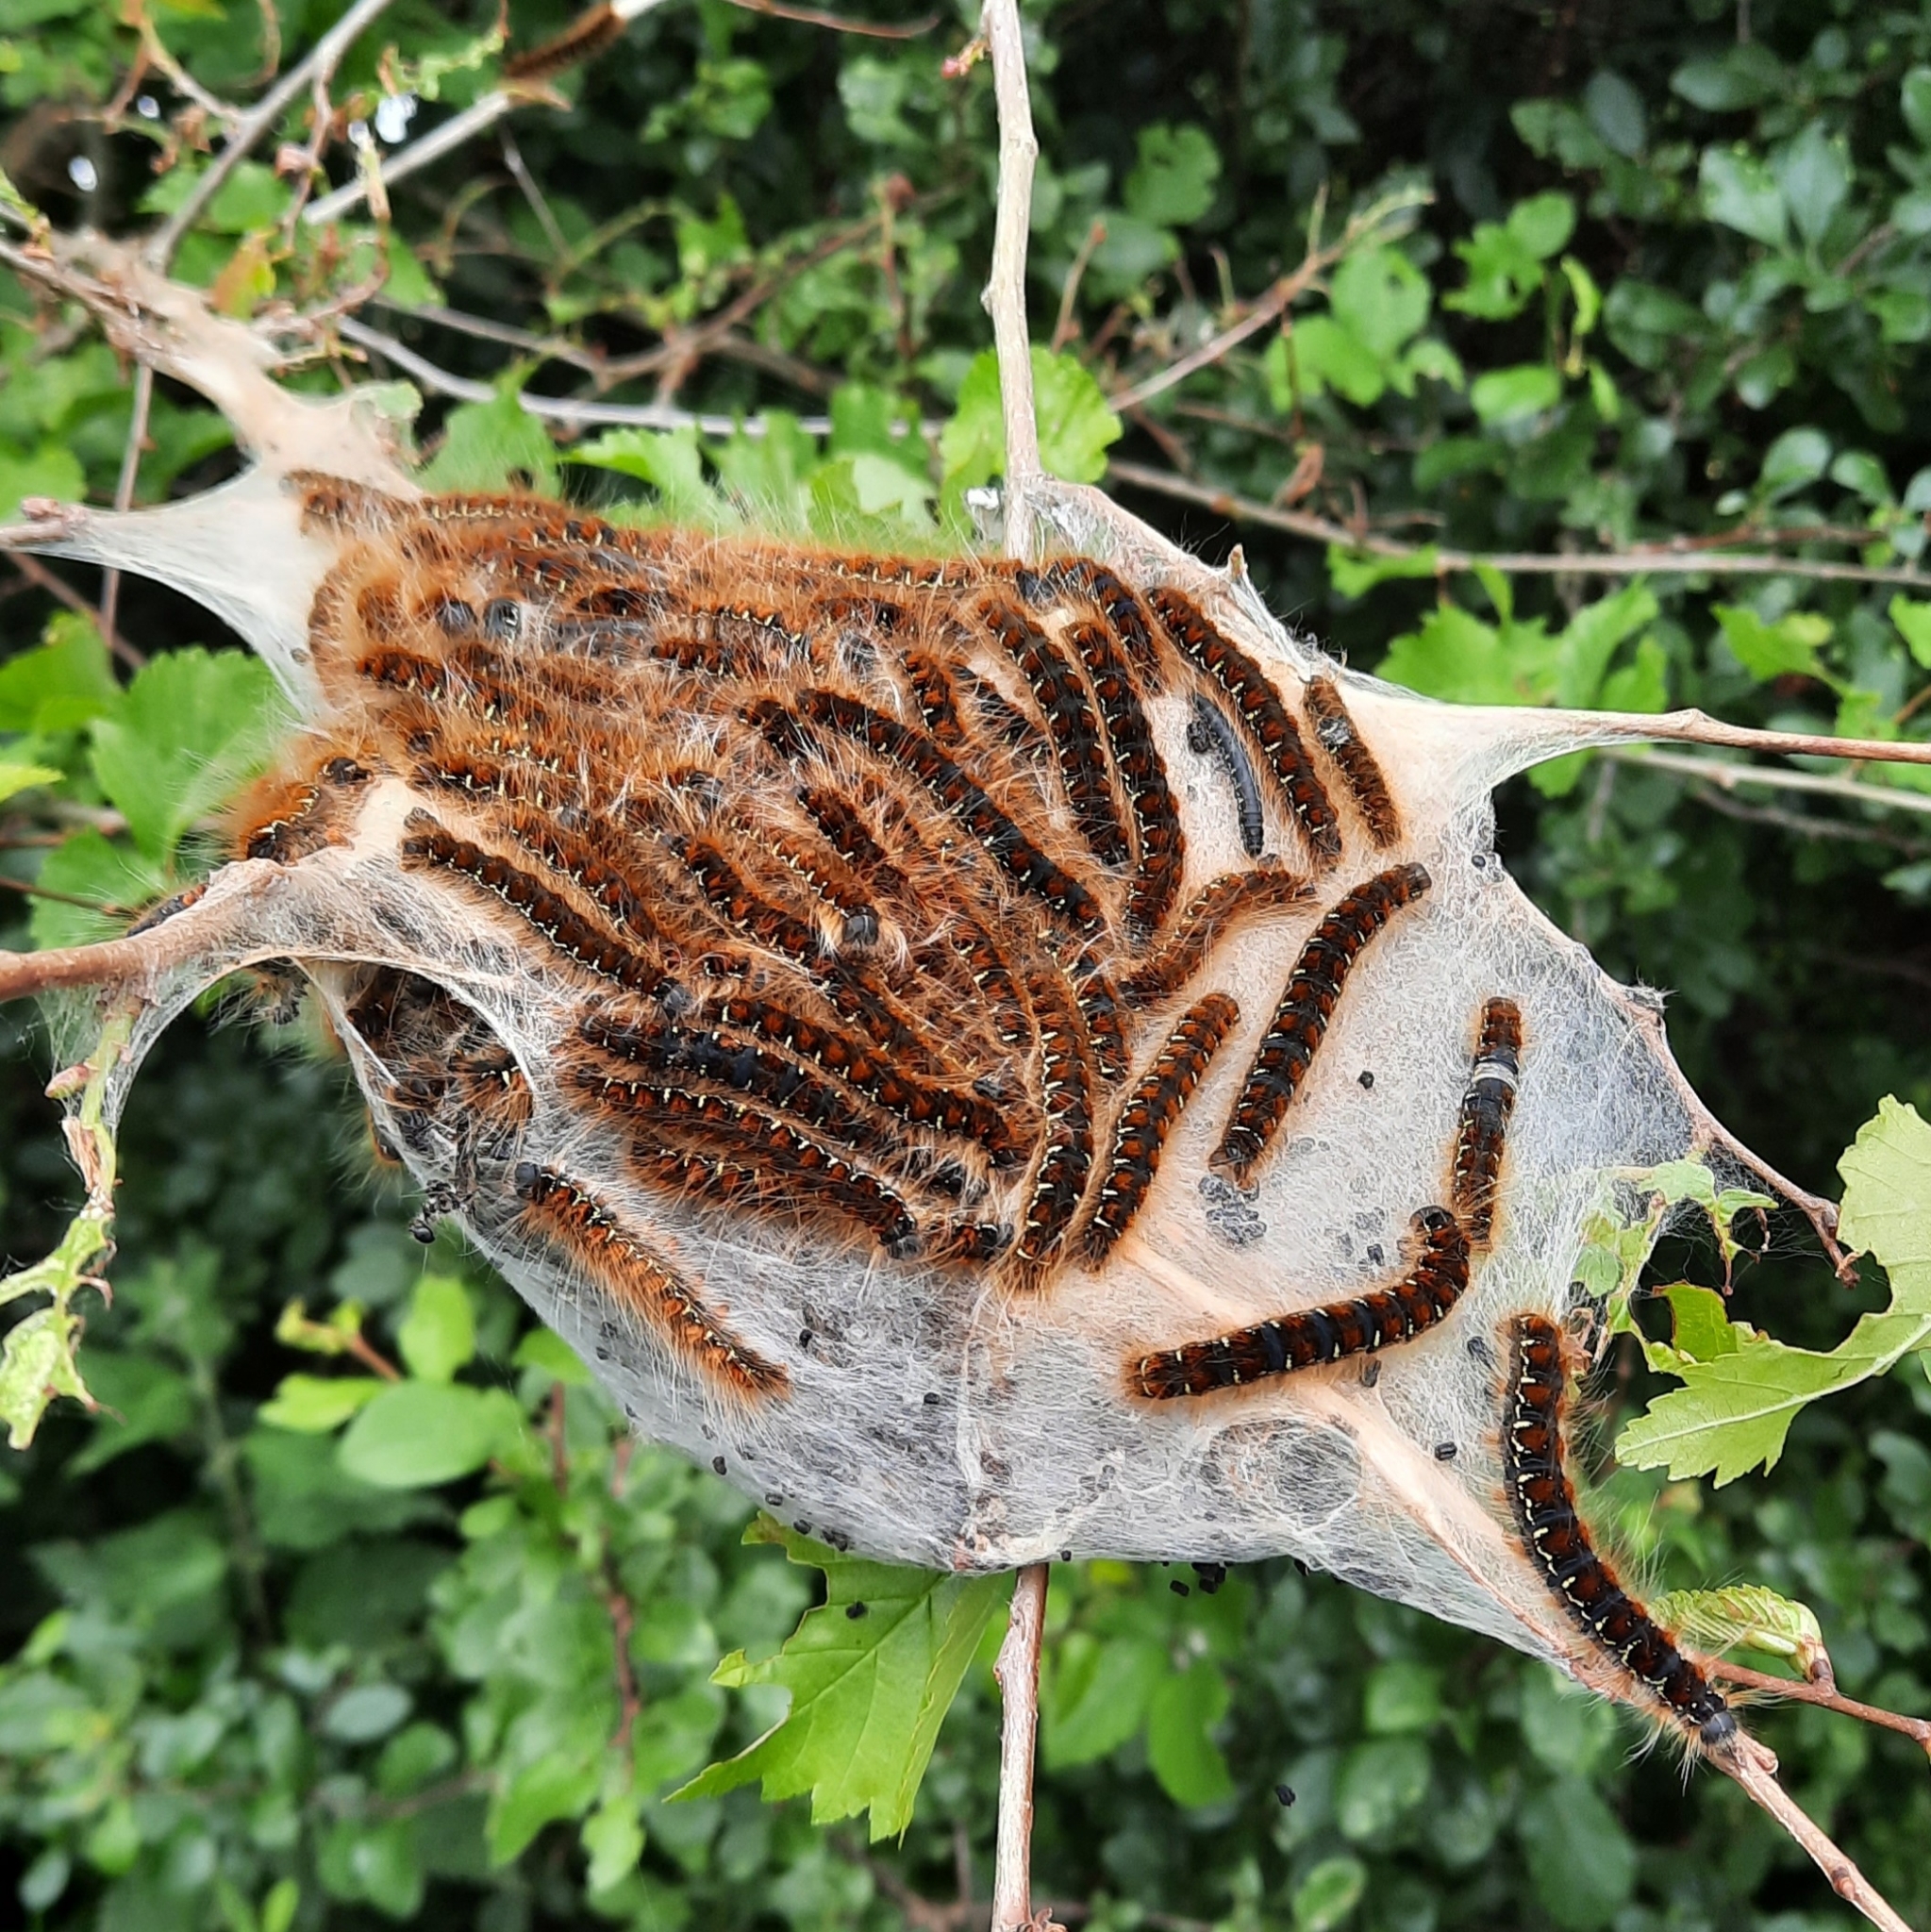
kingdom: Animalia
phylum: Arthropoda
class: Insecta
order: Lepidoptera
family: Lasiocampidae
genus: Eriogaster
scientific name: Eriogaster lanestris
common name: Small eggar
